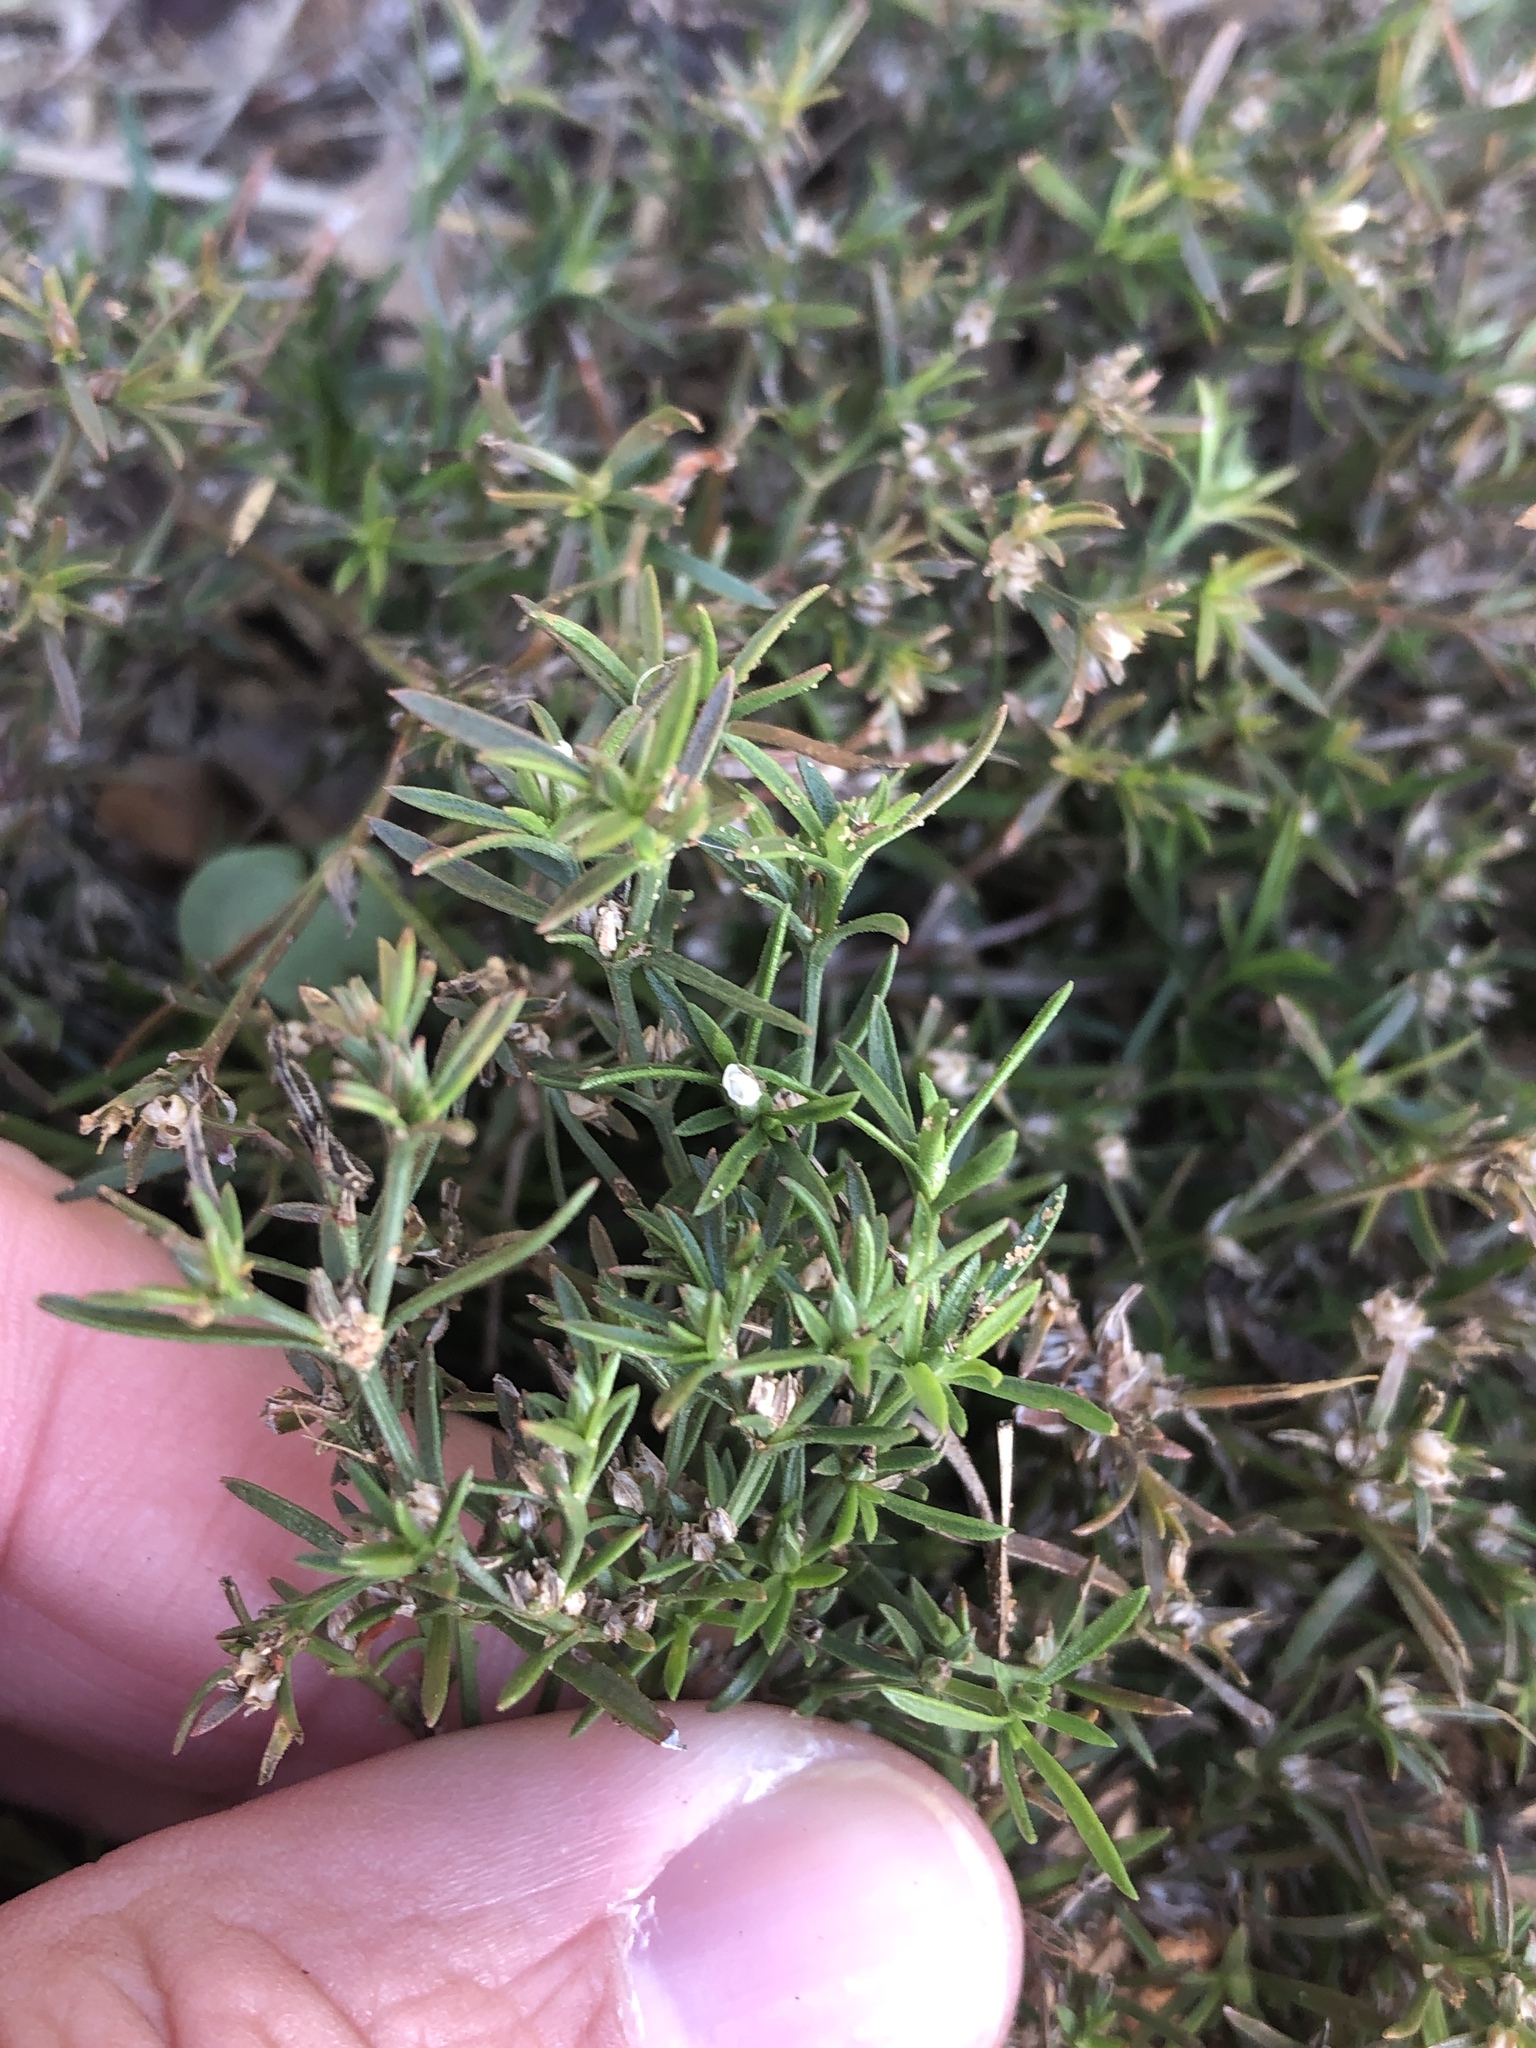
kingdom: Plantae
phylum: Tracheophyta
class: Magnoliopsida
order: Lamiales
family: Tetrachondraceae
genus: Polypremum
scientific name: Polypremum procumbens
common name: Juniper-leaf
